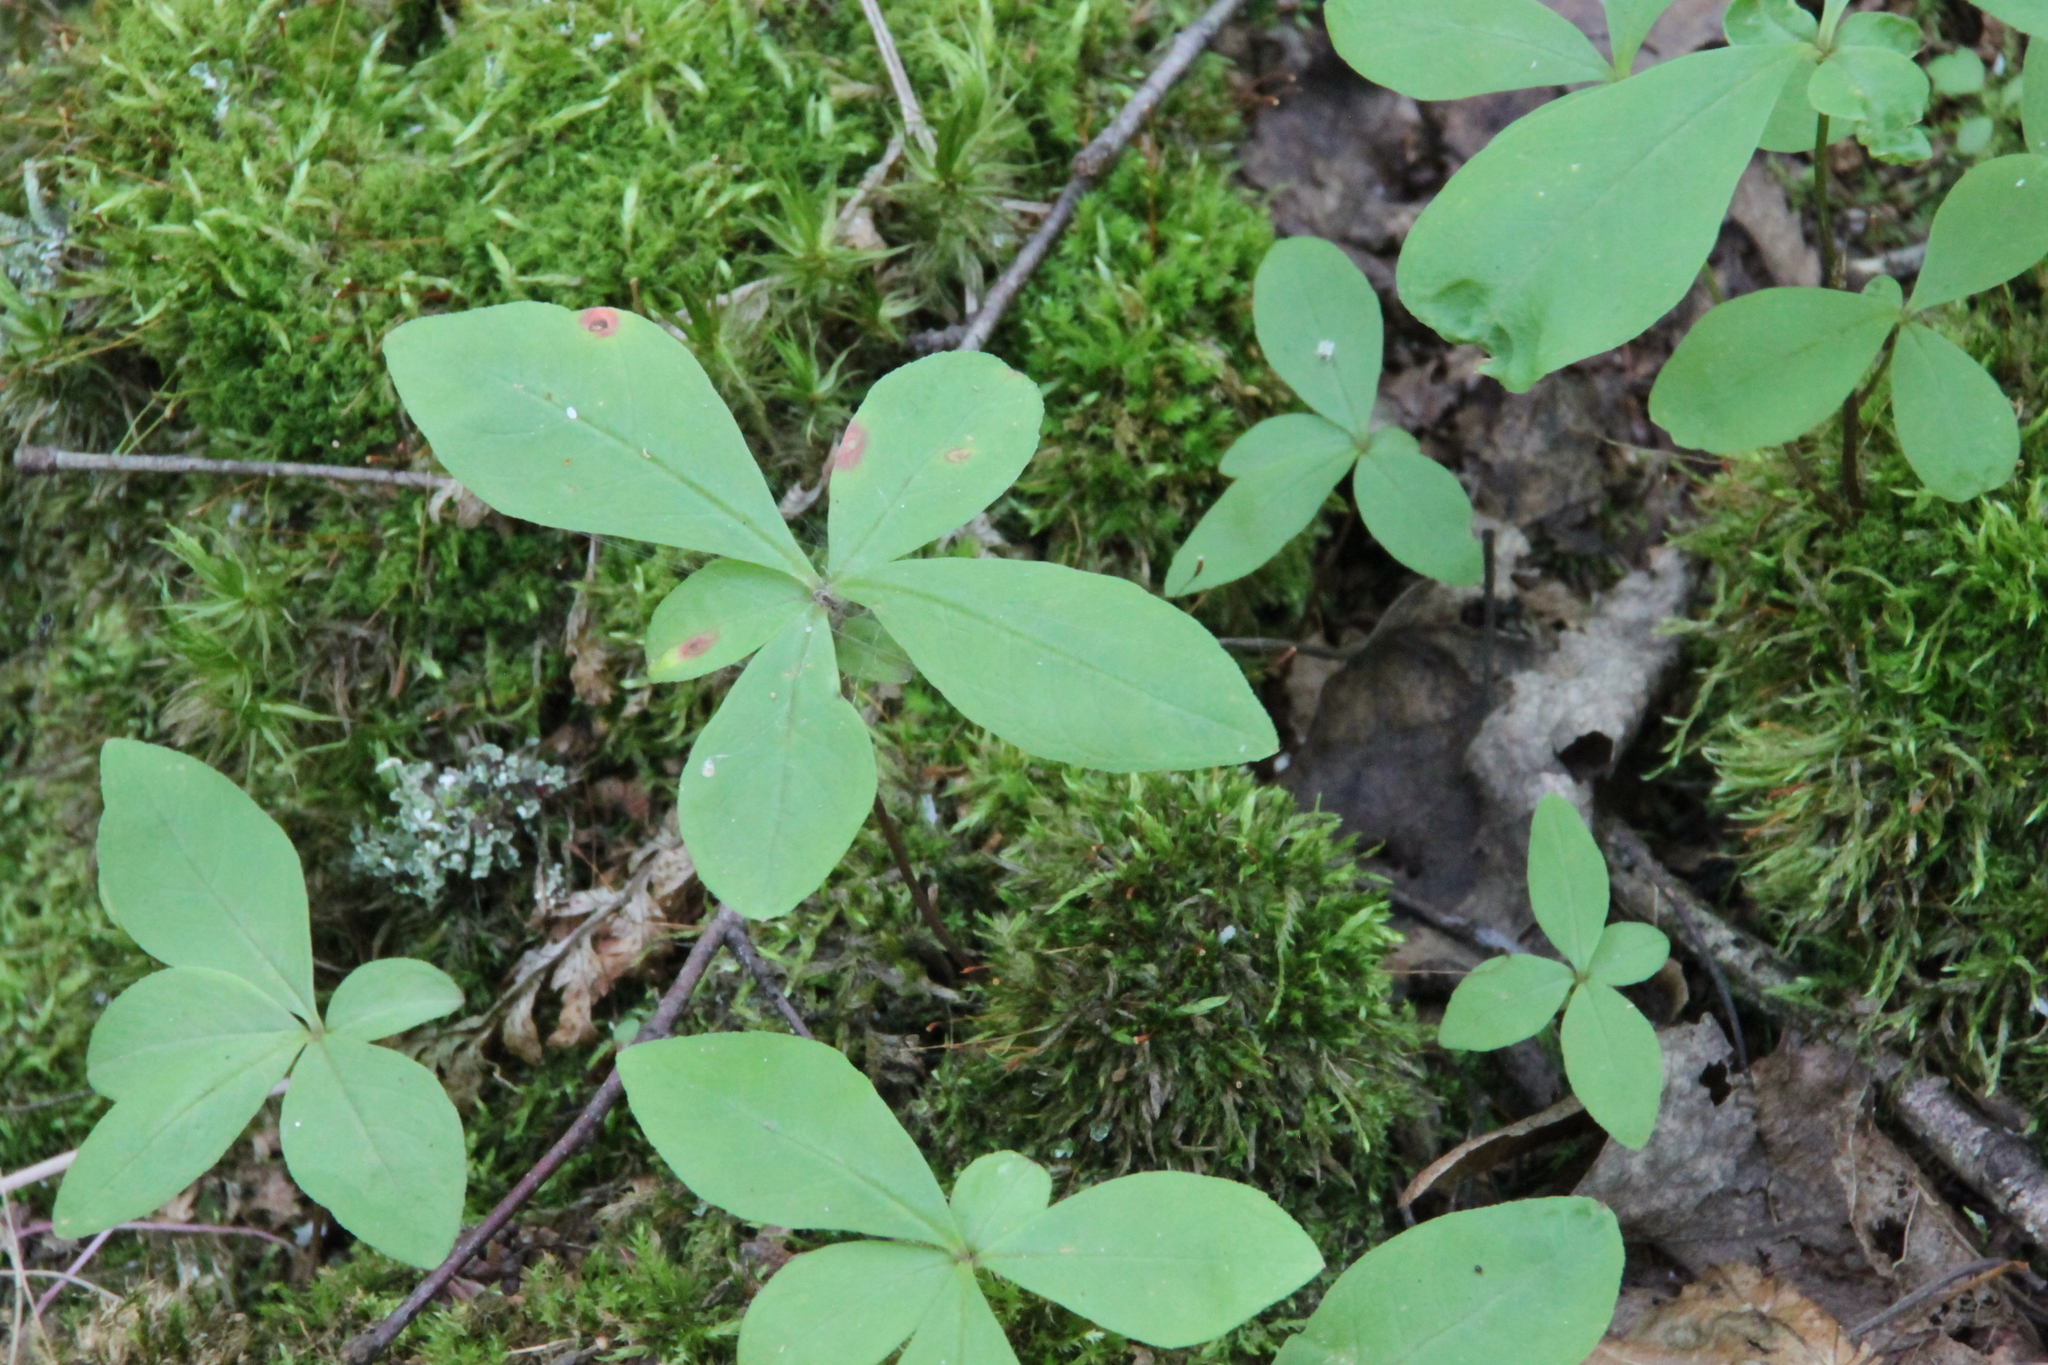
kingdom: Plantae
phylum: Tracheophyta
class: Magnoliopsida
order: Ericales
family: Primulaceae
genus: Lysimachia
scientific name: Lysimachia europaea
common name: Arctic starflower
